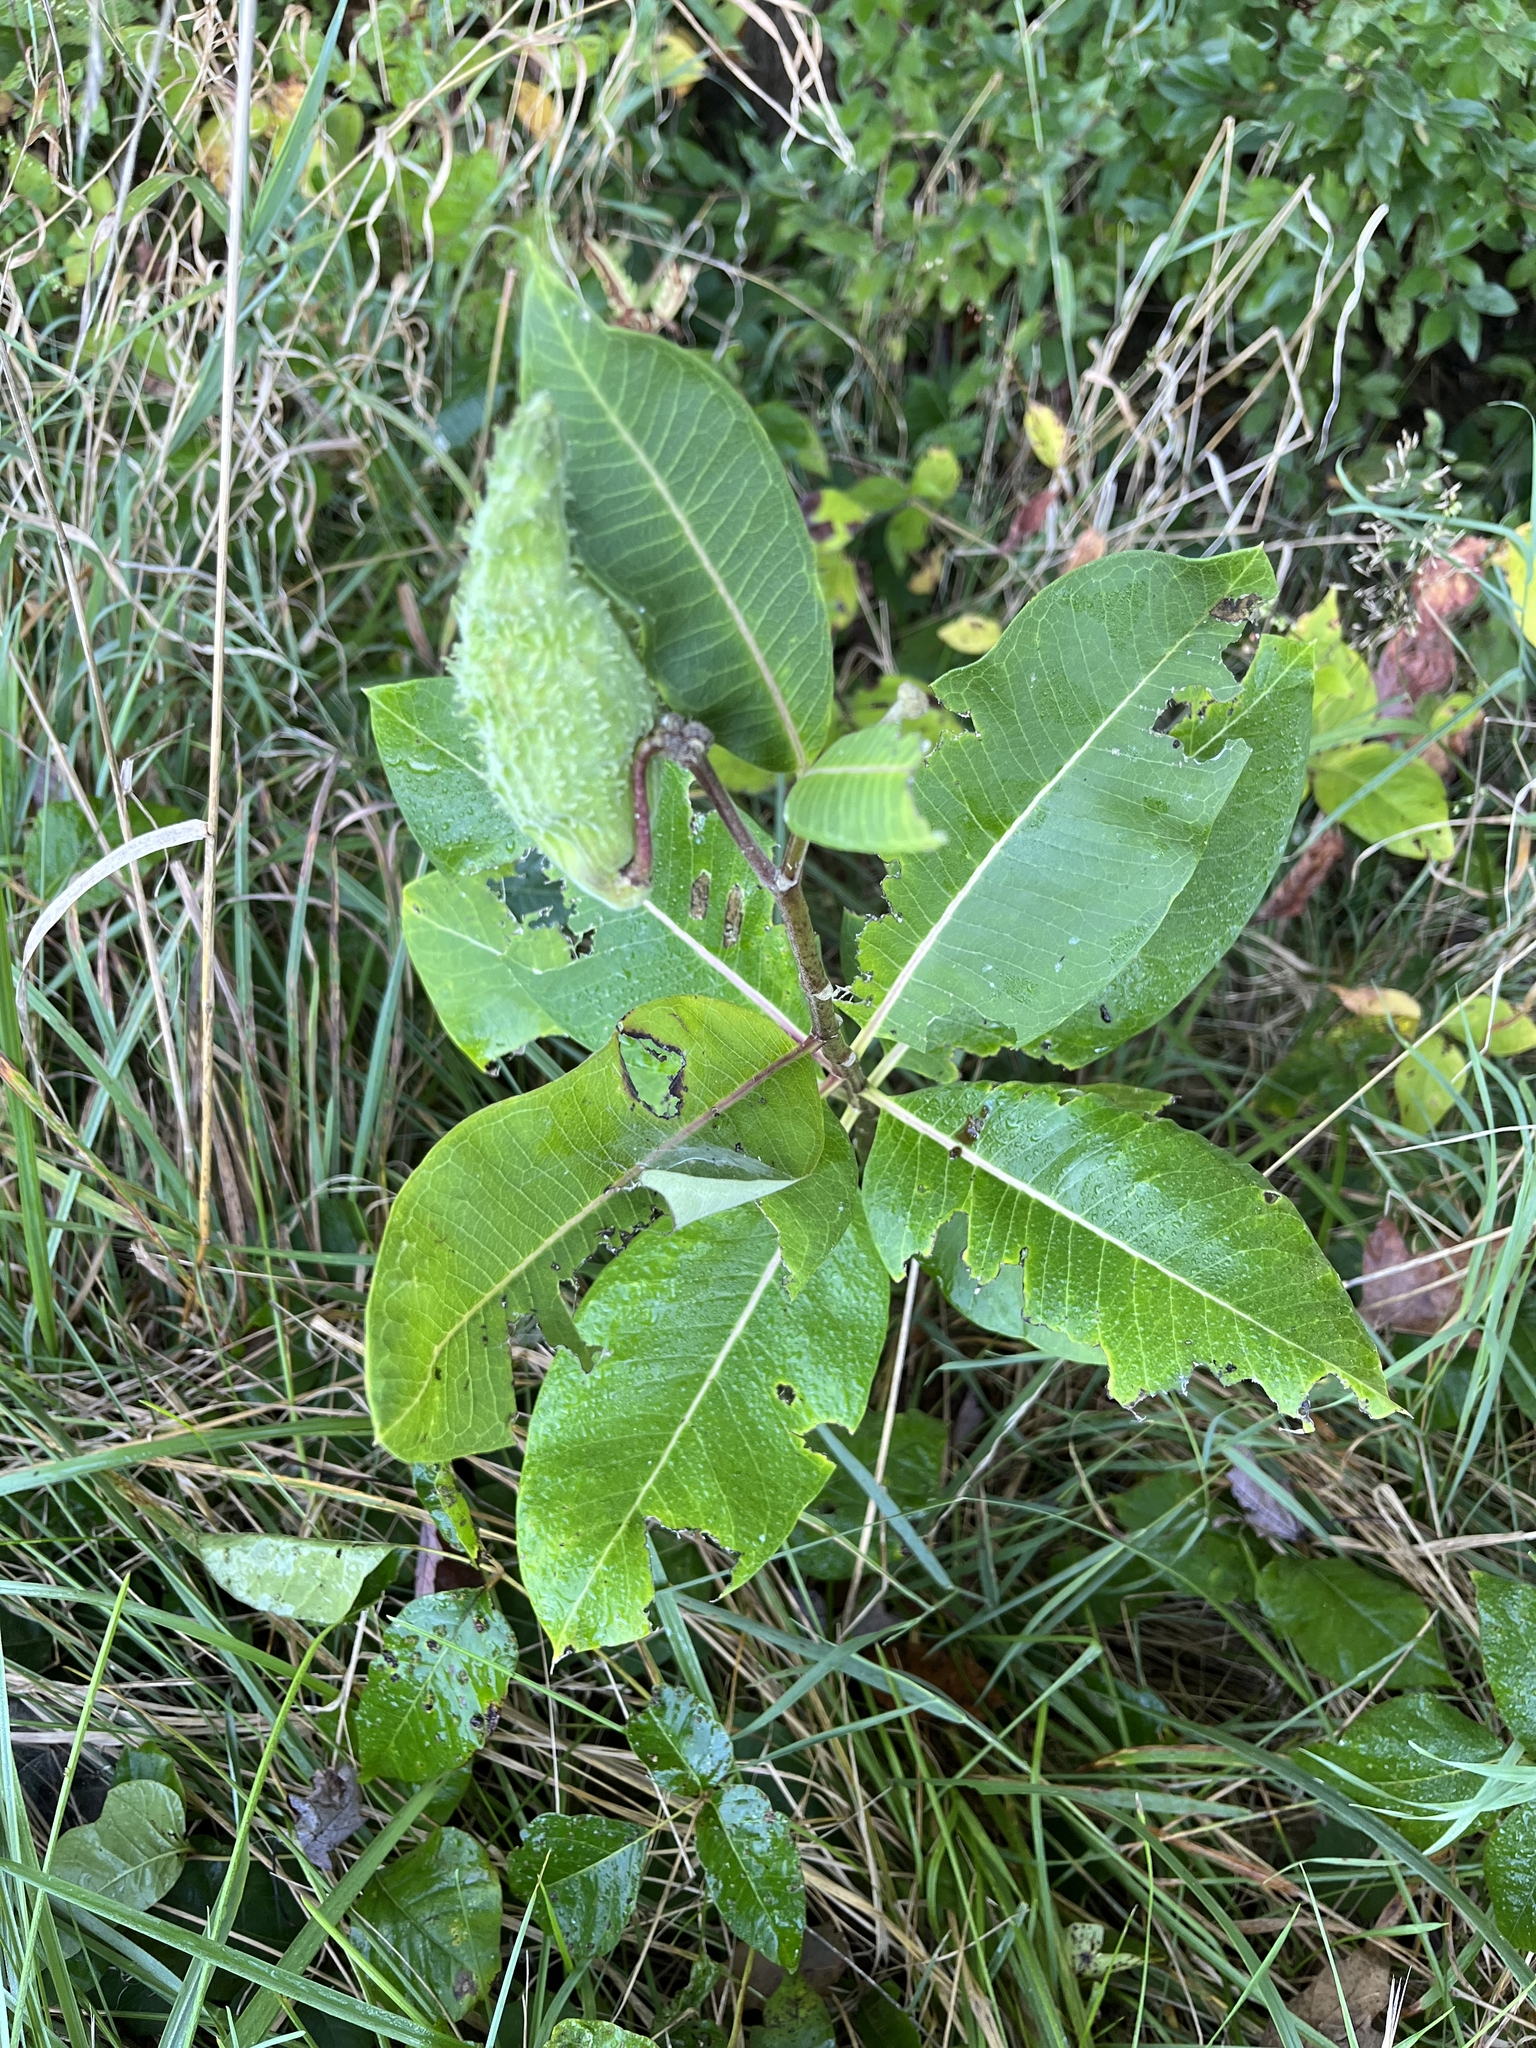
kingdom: Plantae
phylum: Tracheophyta
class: Magnoliopsida
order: Gentianales
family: Apocynaceae
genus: Asclepias
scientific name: Asclepias syriaca
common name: Common milkweed
